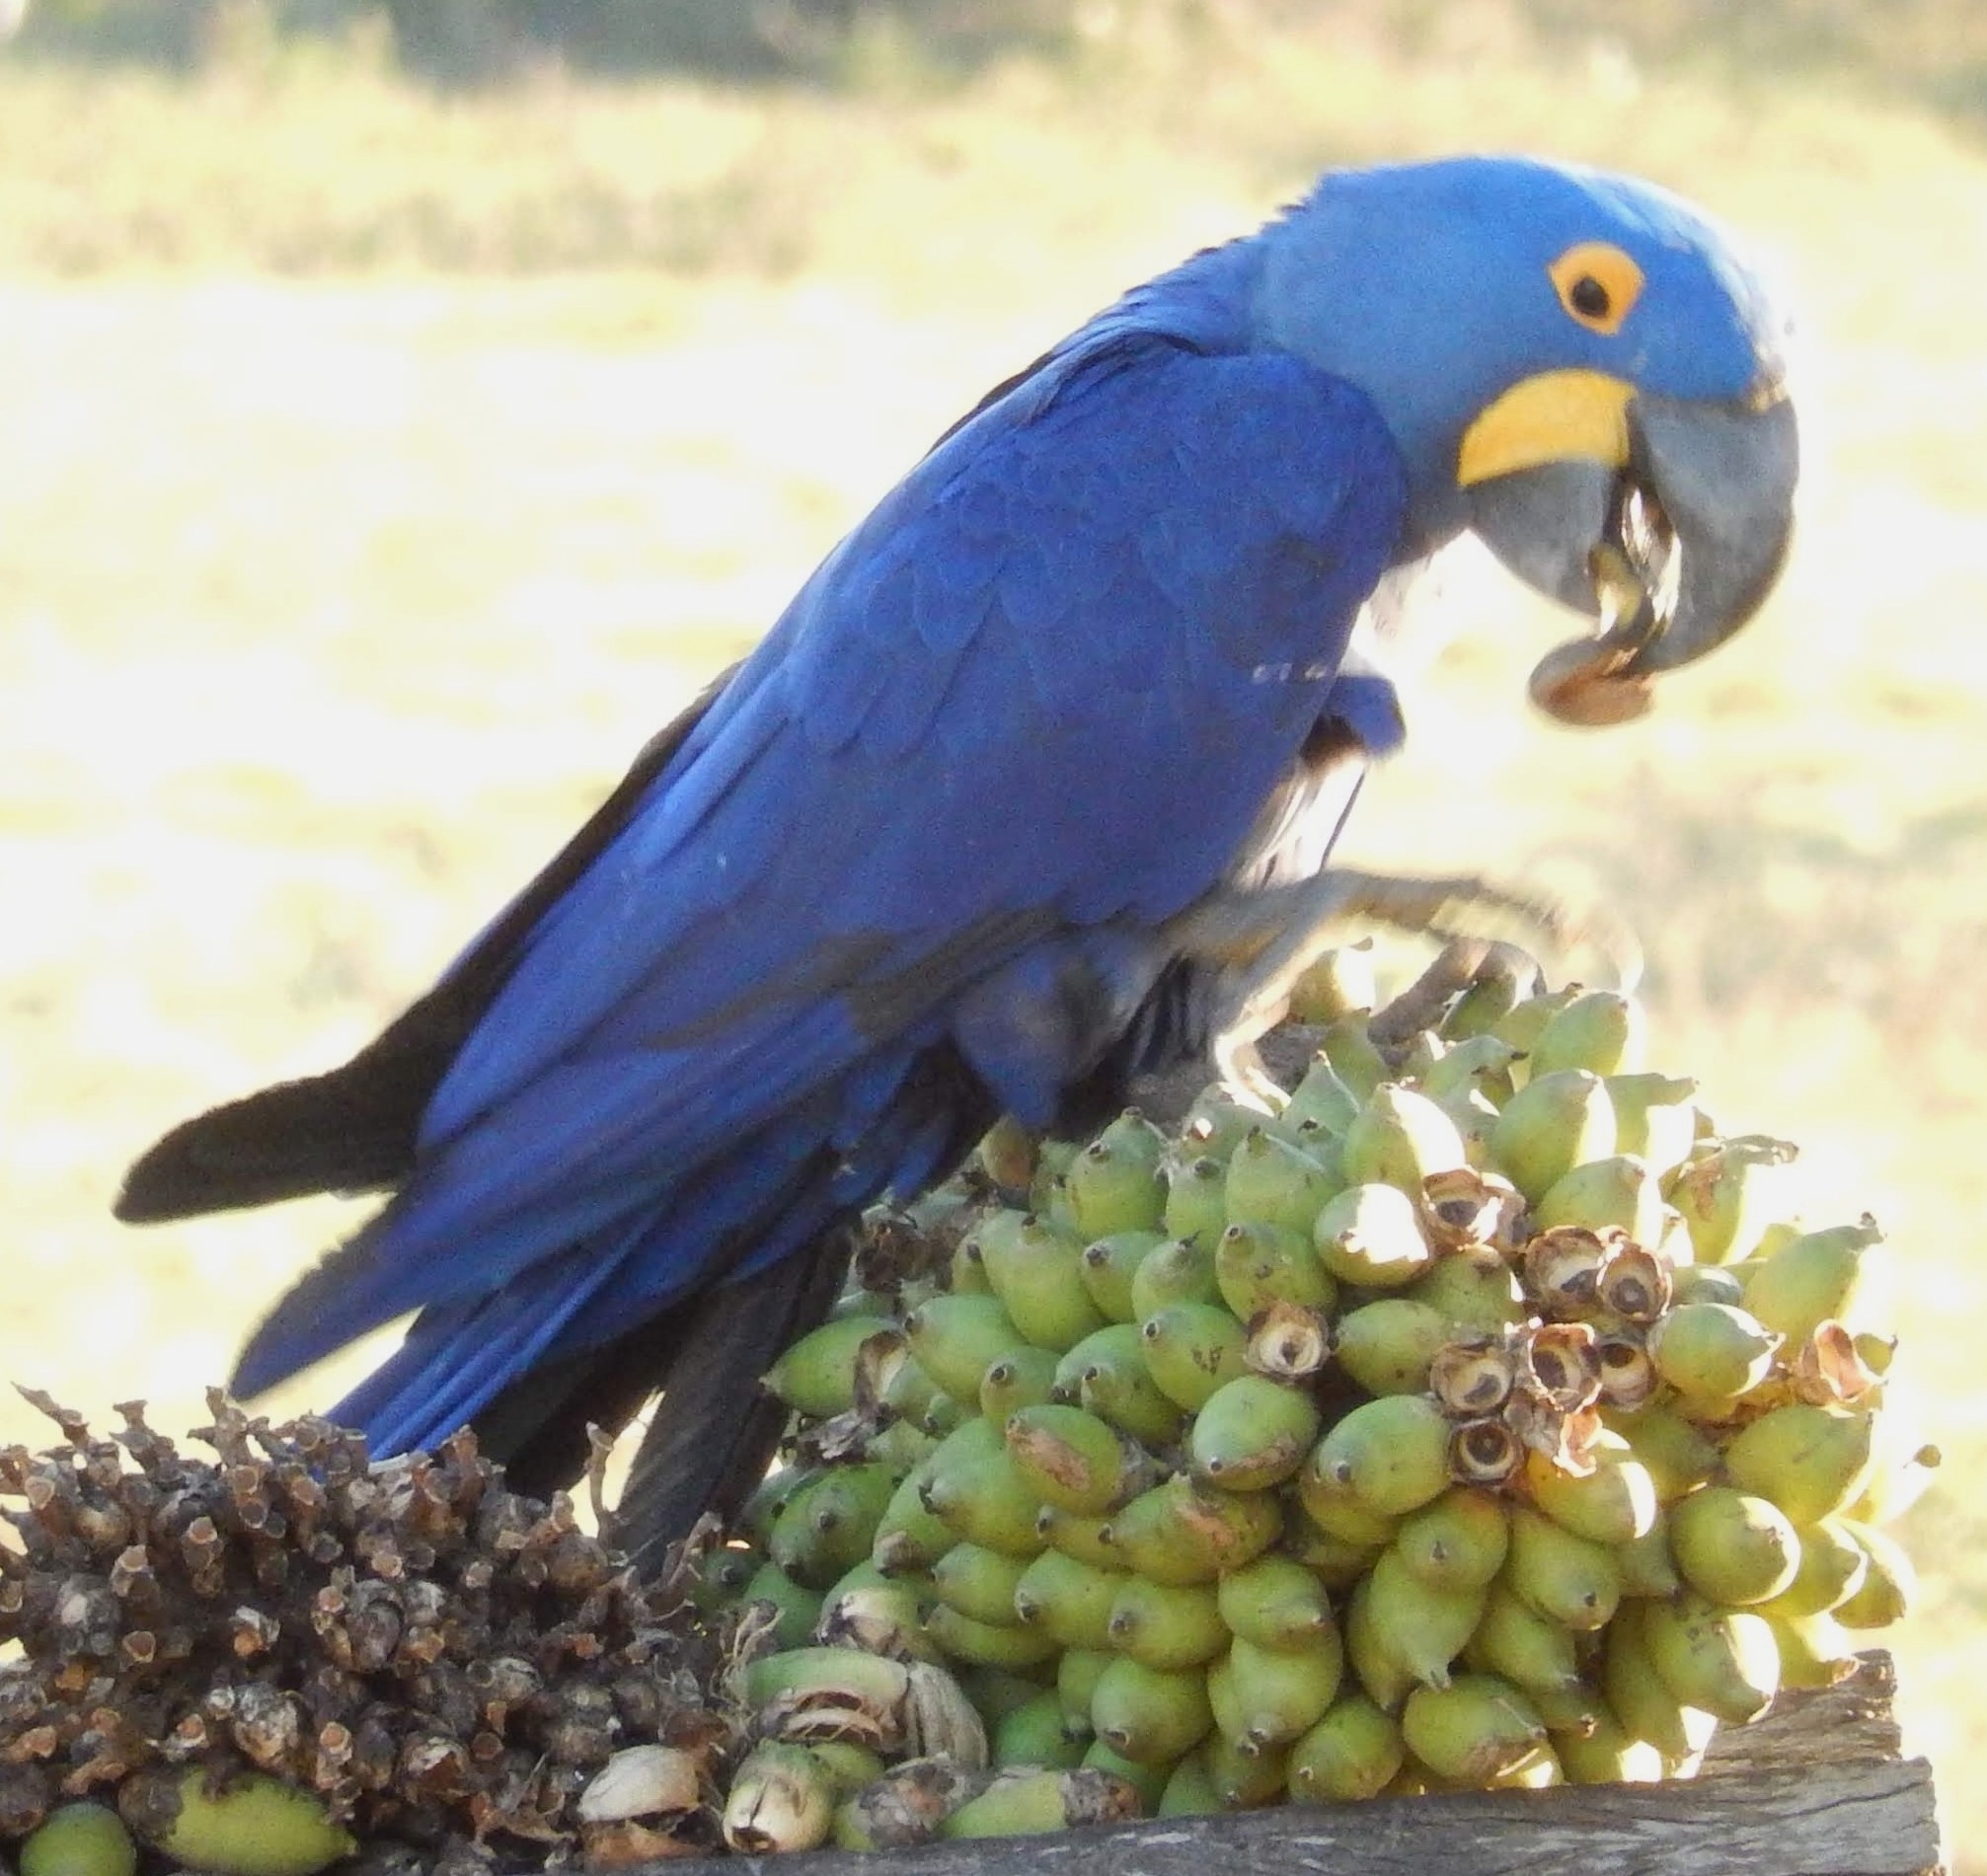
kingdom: Animalia
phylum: Chordata
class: Aves
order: Psittaciformes
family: Psittacidae
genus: Anodorhynchus
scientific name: Anodorhynchus hyacinthinus
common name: Hyacinth macaw
